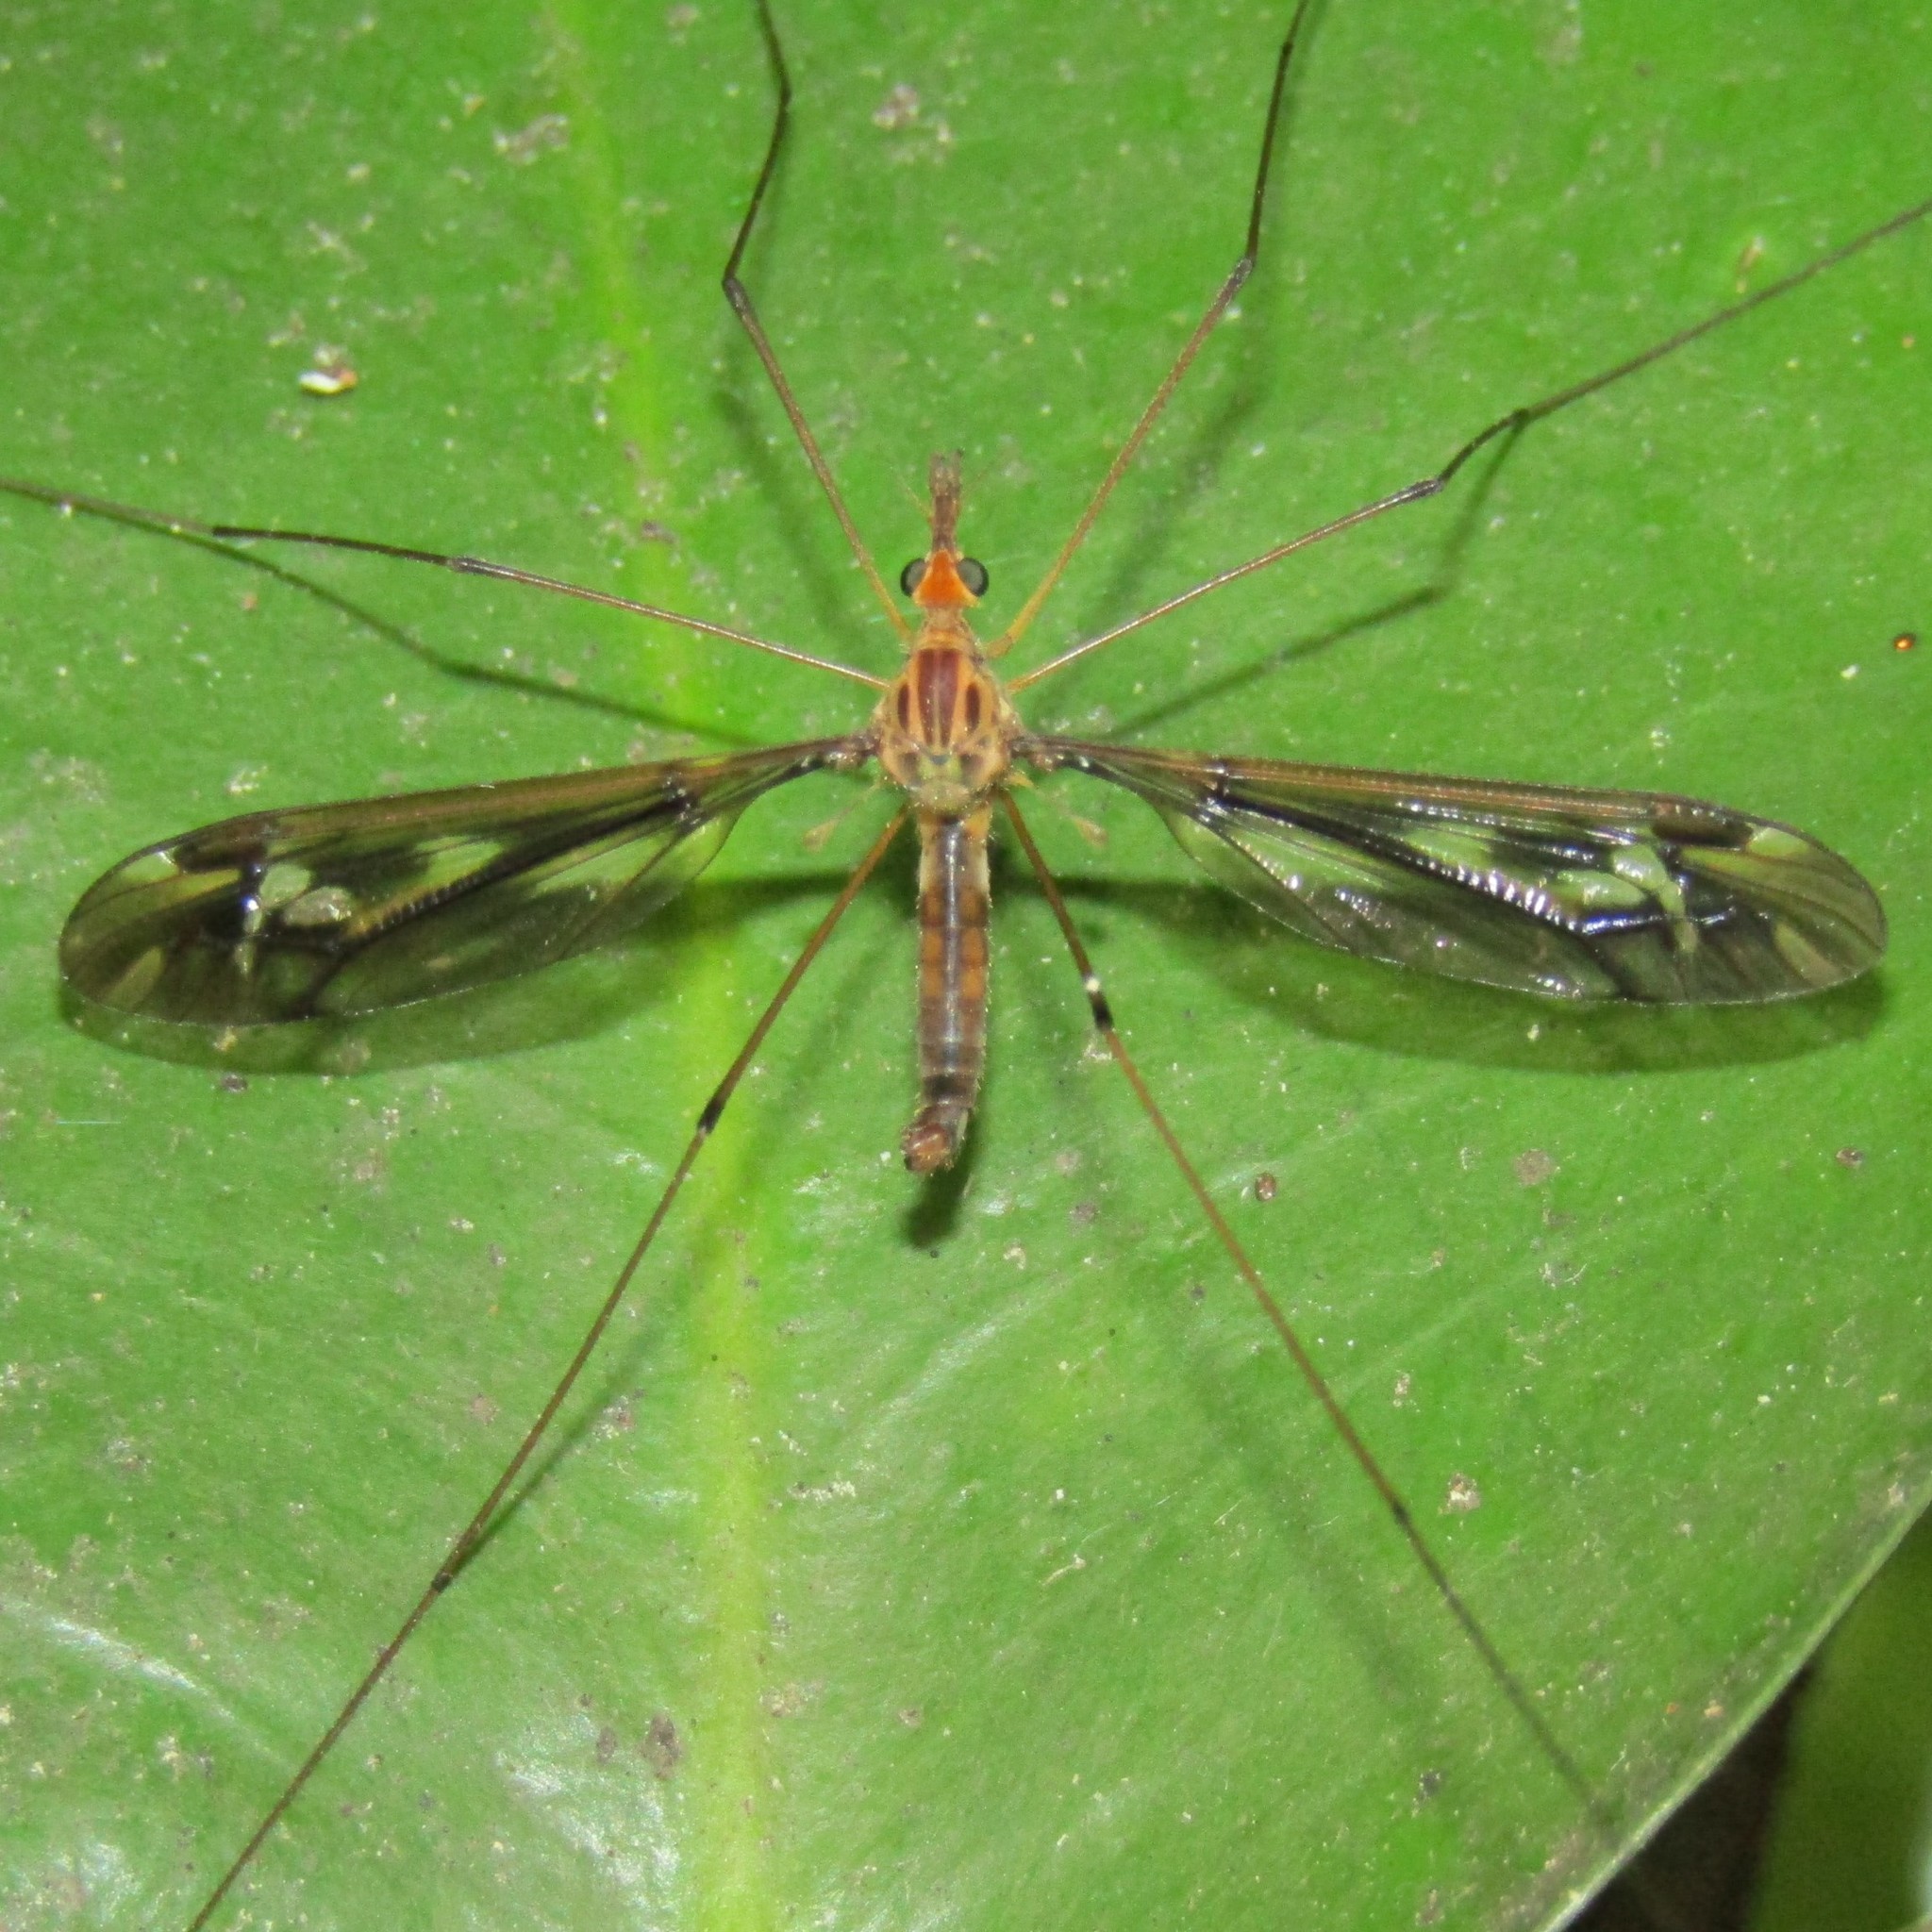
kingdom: Animalia
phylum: Arthropoda
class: Insecta
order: Diptera
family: Tipulidae
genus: Leptotarsus
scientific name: Leptotarsus huttoni
